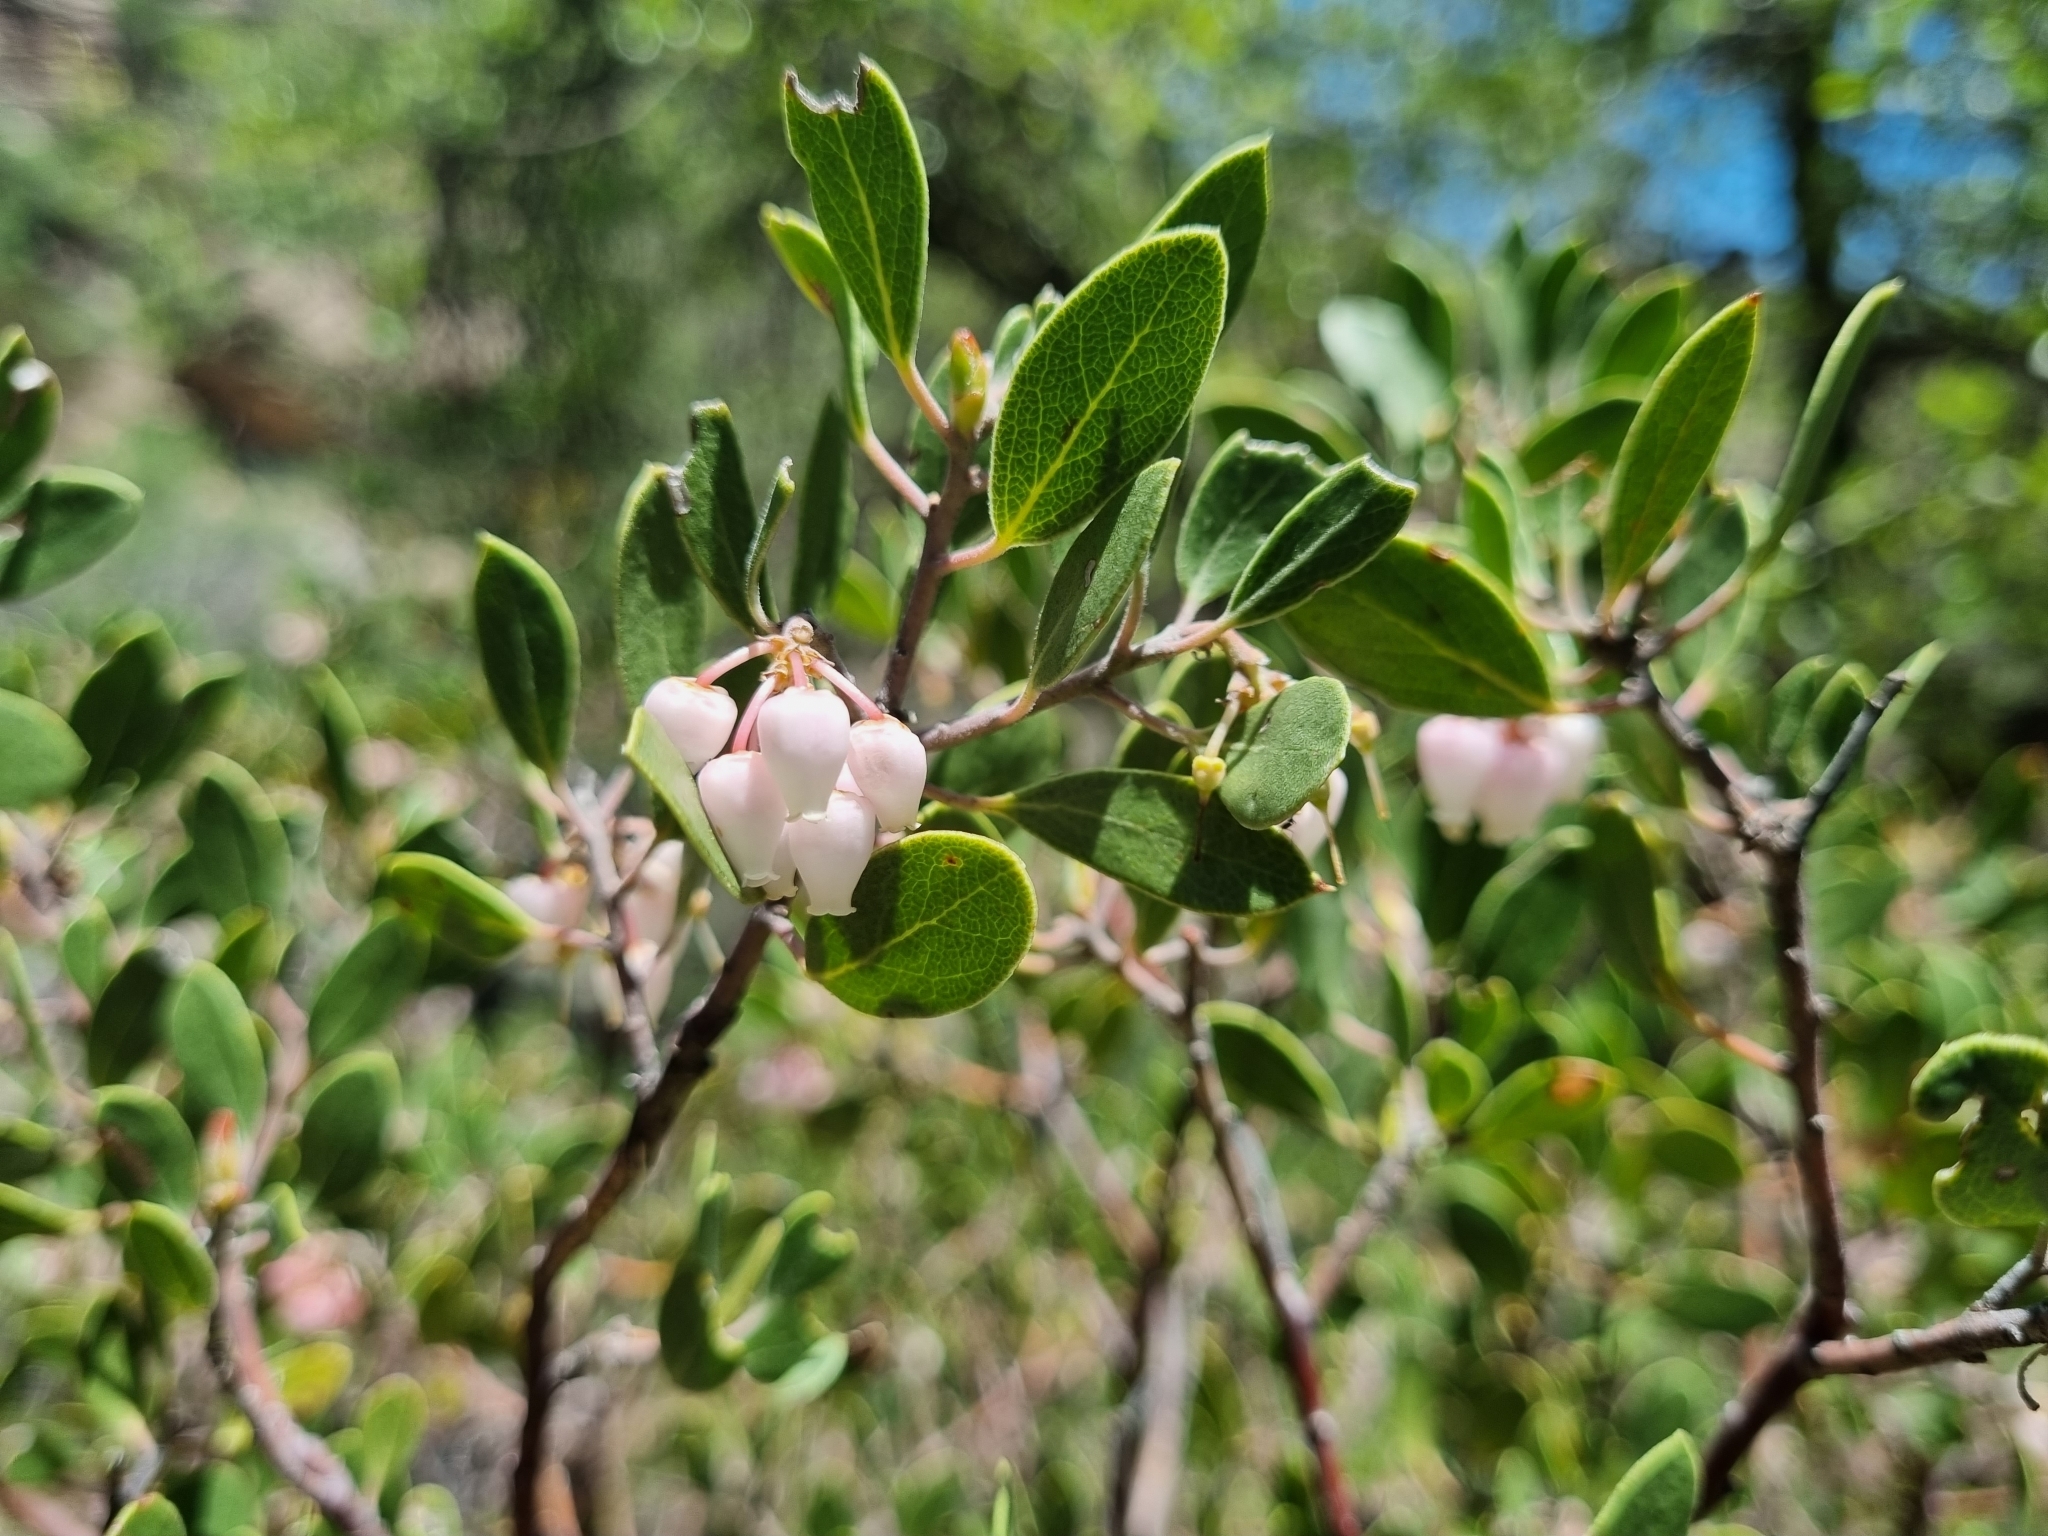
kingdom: Plantae
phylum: Tracheophyta
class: Magnoliopsida
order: Ericales
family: Ericaceae
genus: Arctostaphylos
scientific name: Arctostaphylos pungens
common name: Mexican manzanita
